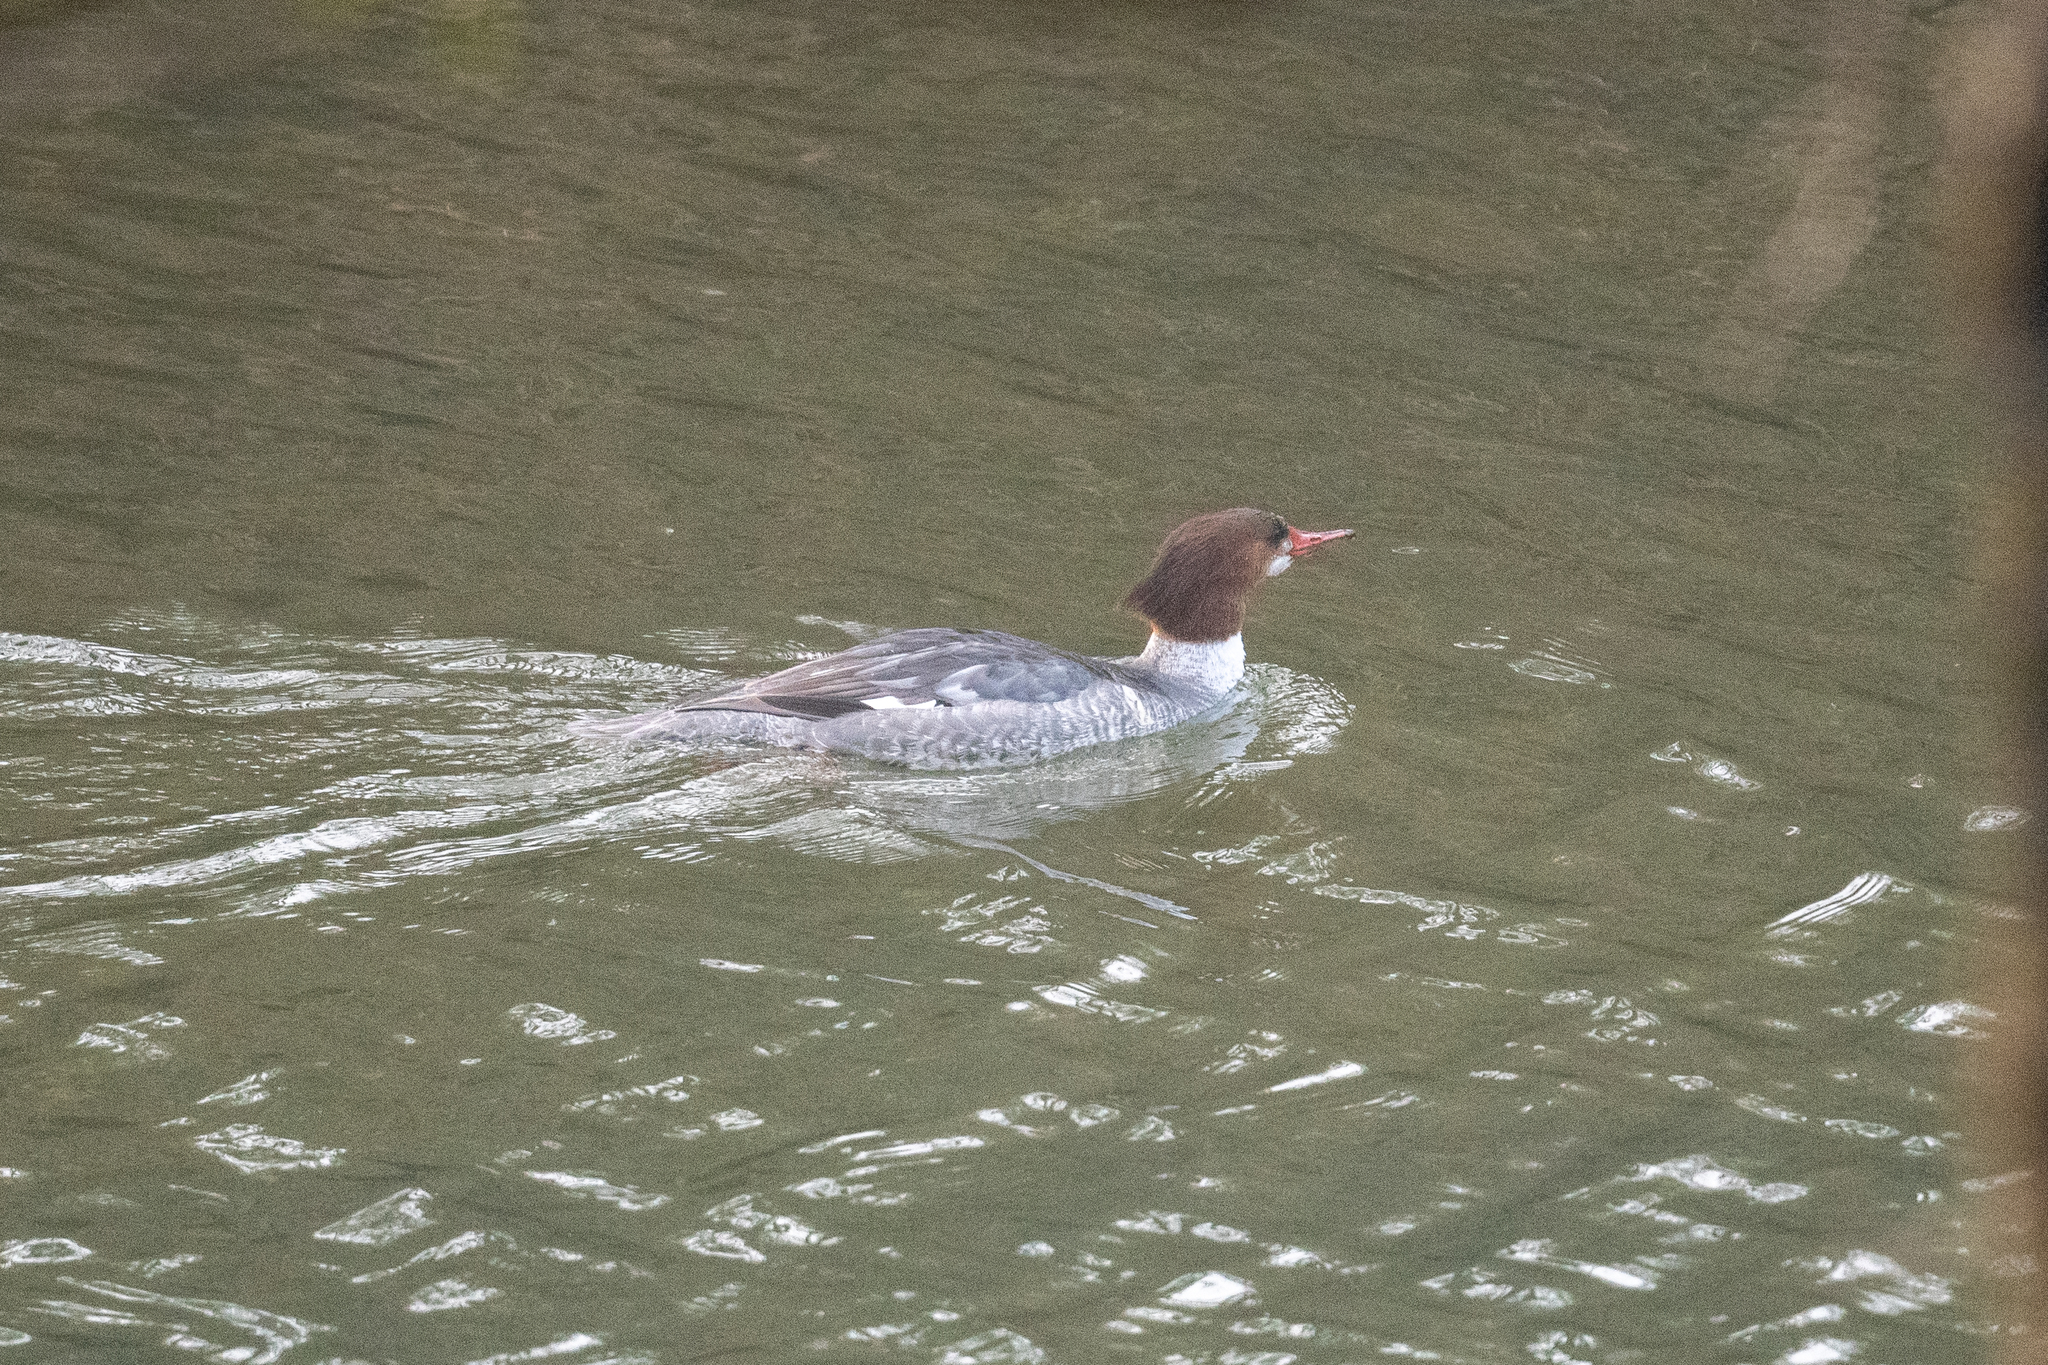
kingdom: Animalia
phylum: Chordata
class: Aves
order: Anseriformes
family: Anatidae
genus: Mergus
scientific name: Mergus merganser
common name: Common merganser
